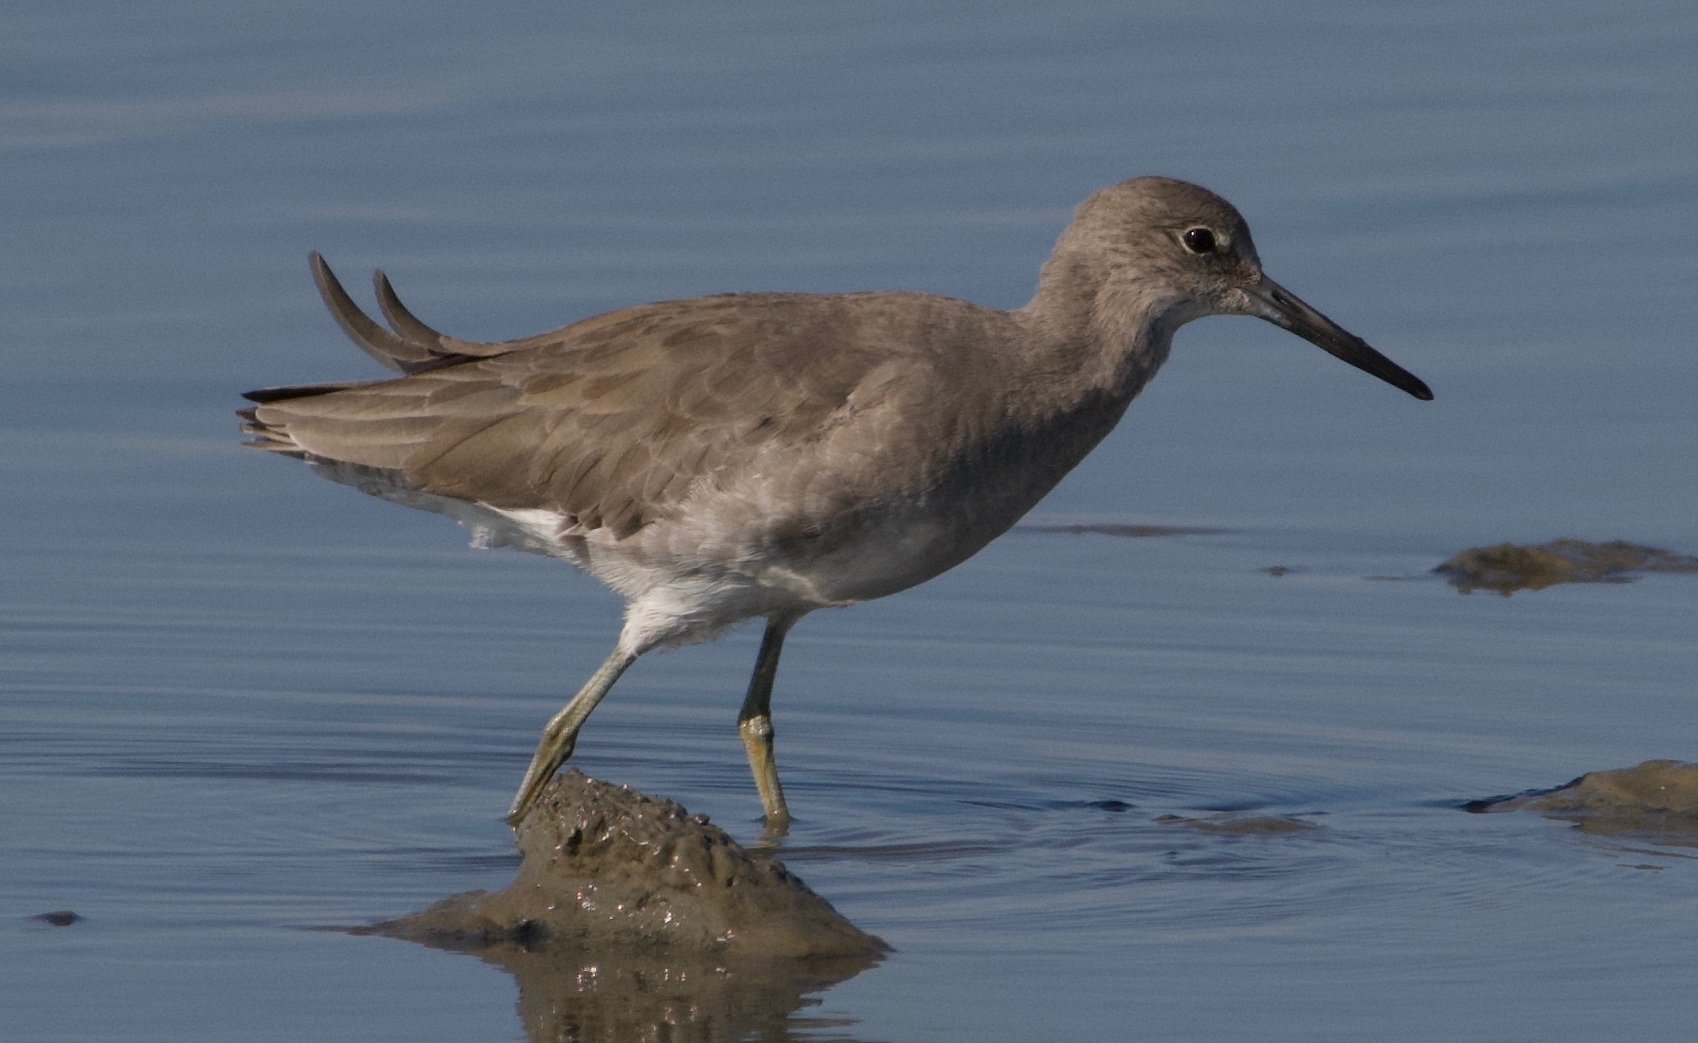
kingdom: Animalia
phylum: Chordata
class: Aves
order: Charadriiformes
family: Scolopacidae
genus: Tringa
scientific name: Tringa semipalmata
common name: Willet
